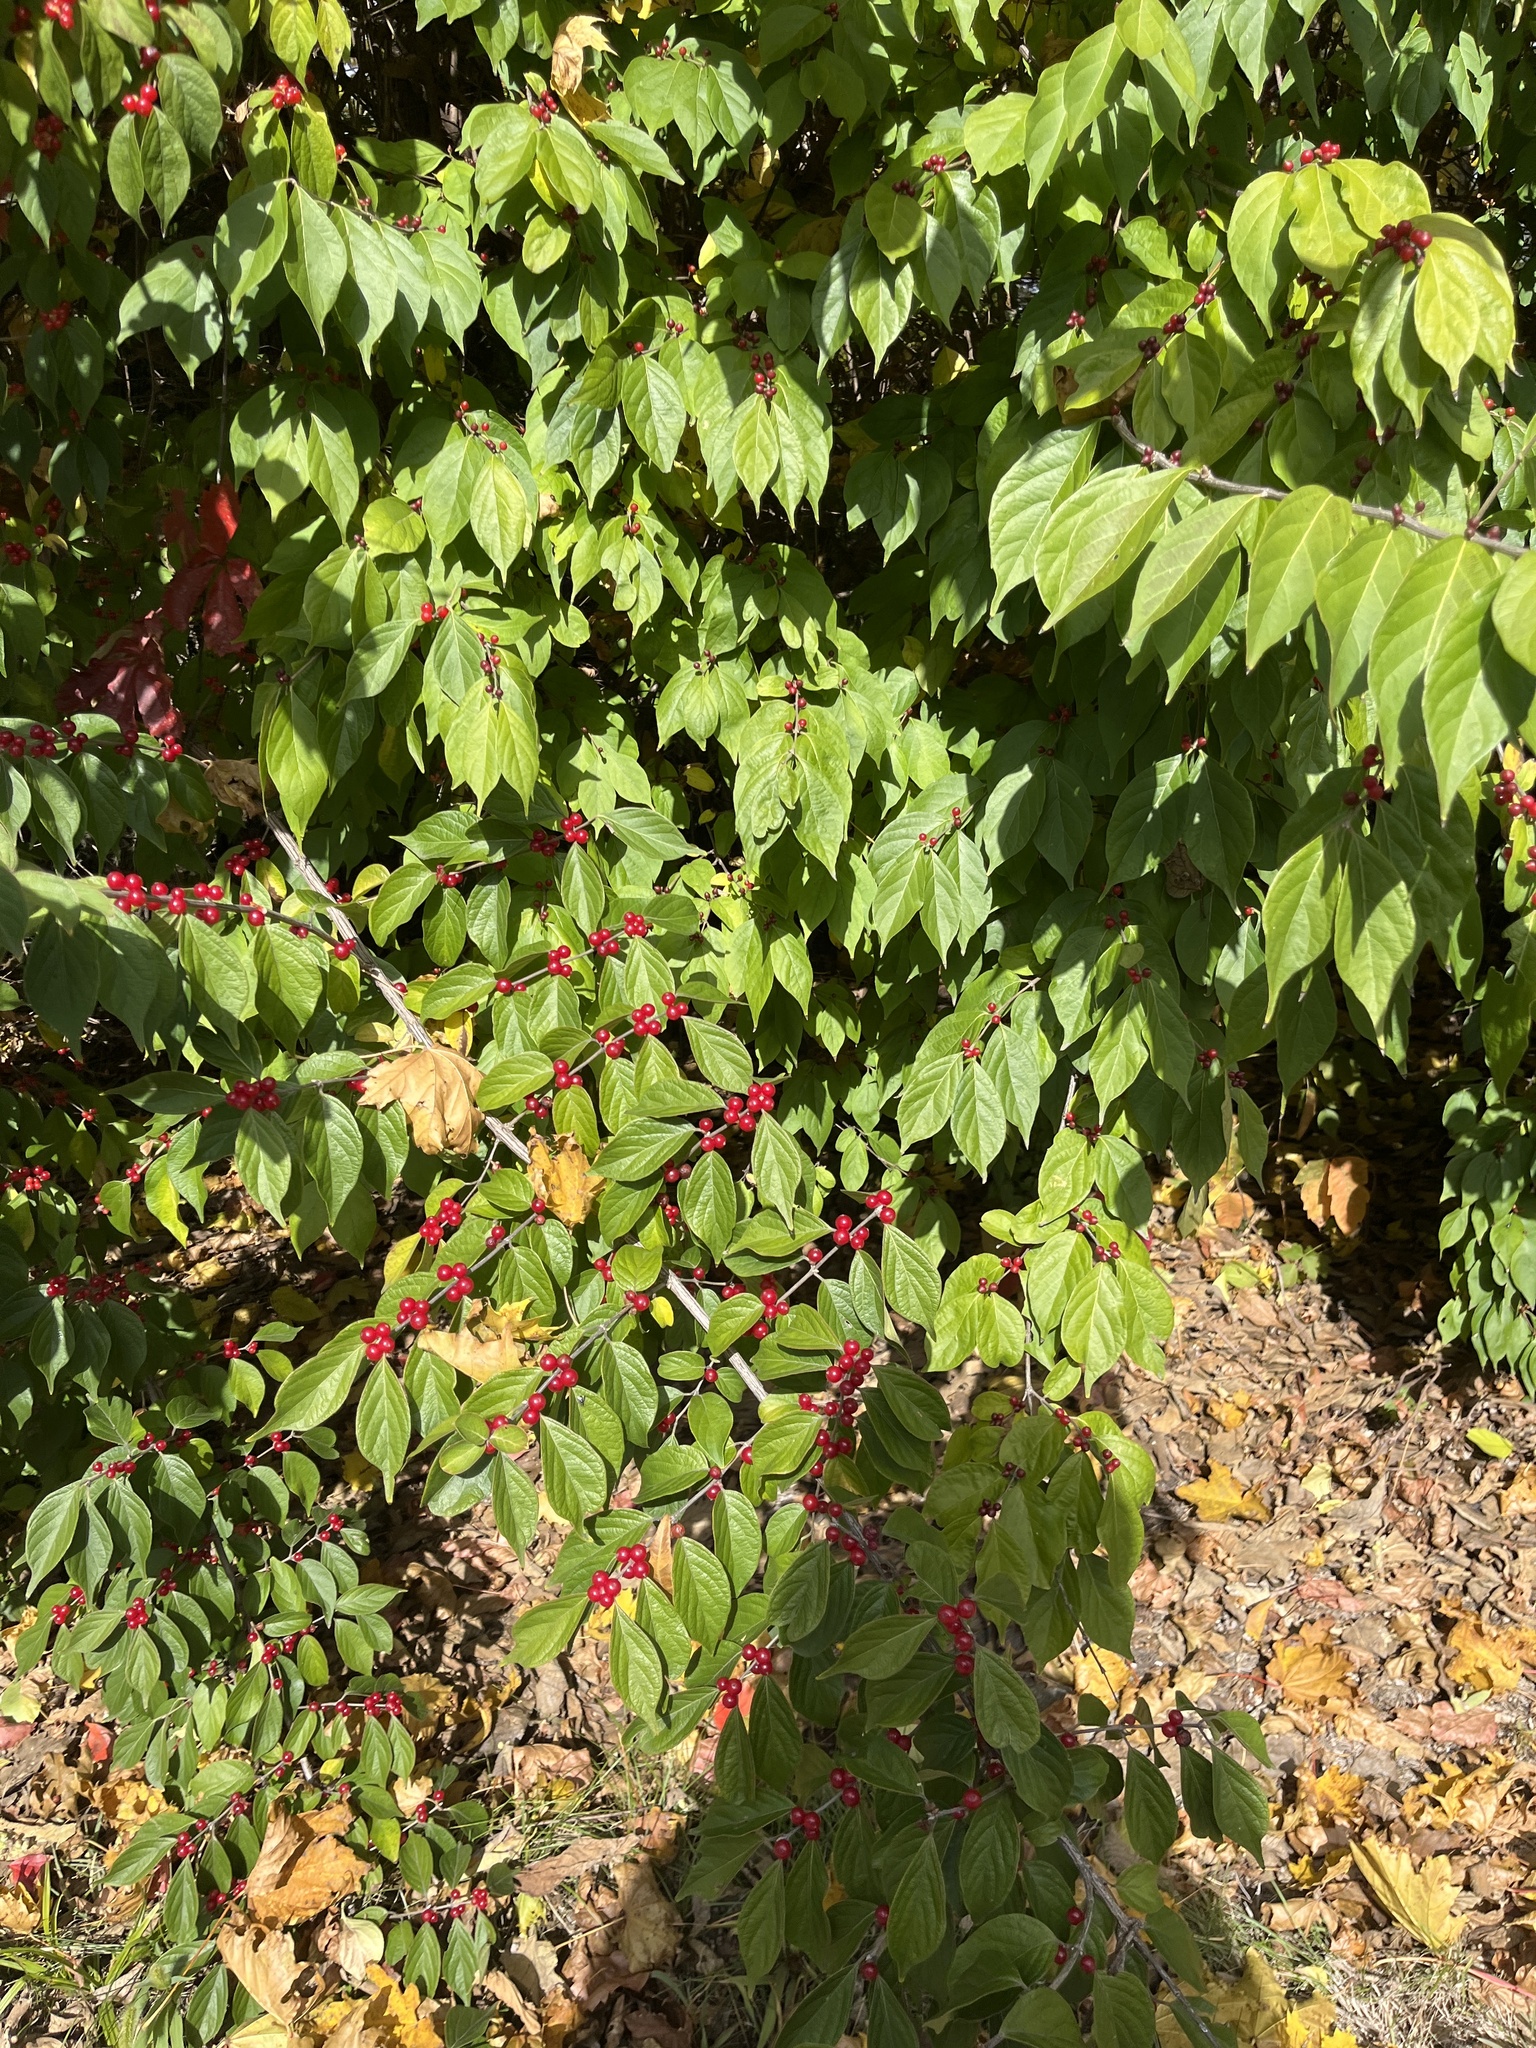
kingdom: Plantae
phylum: Tracheophyta
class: Magnoliopsida
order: Dipsacales
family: Caprifoliaceae
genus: Lonicera
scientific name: Lonicera maackii
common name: Amur honeysuckle
